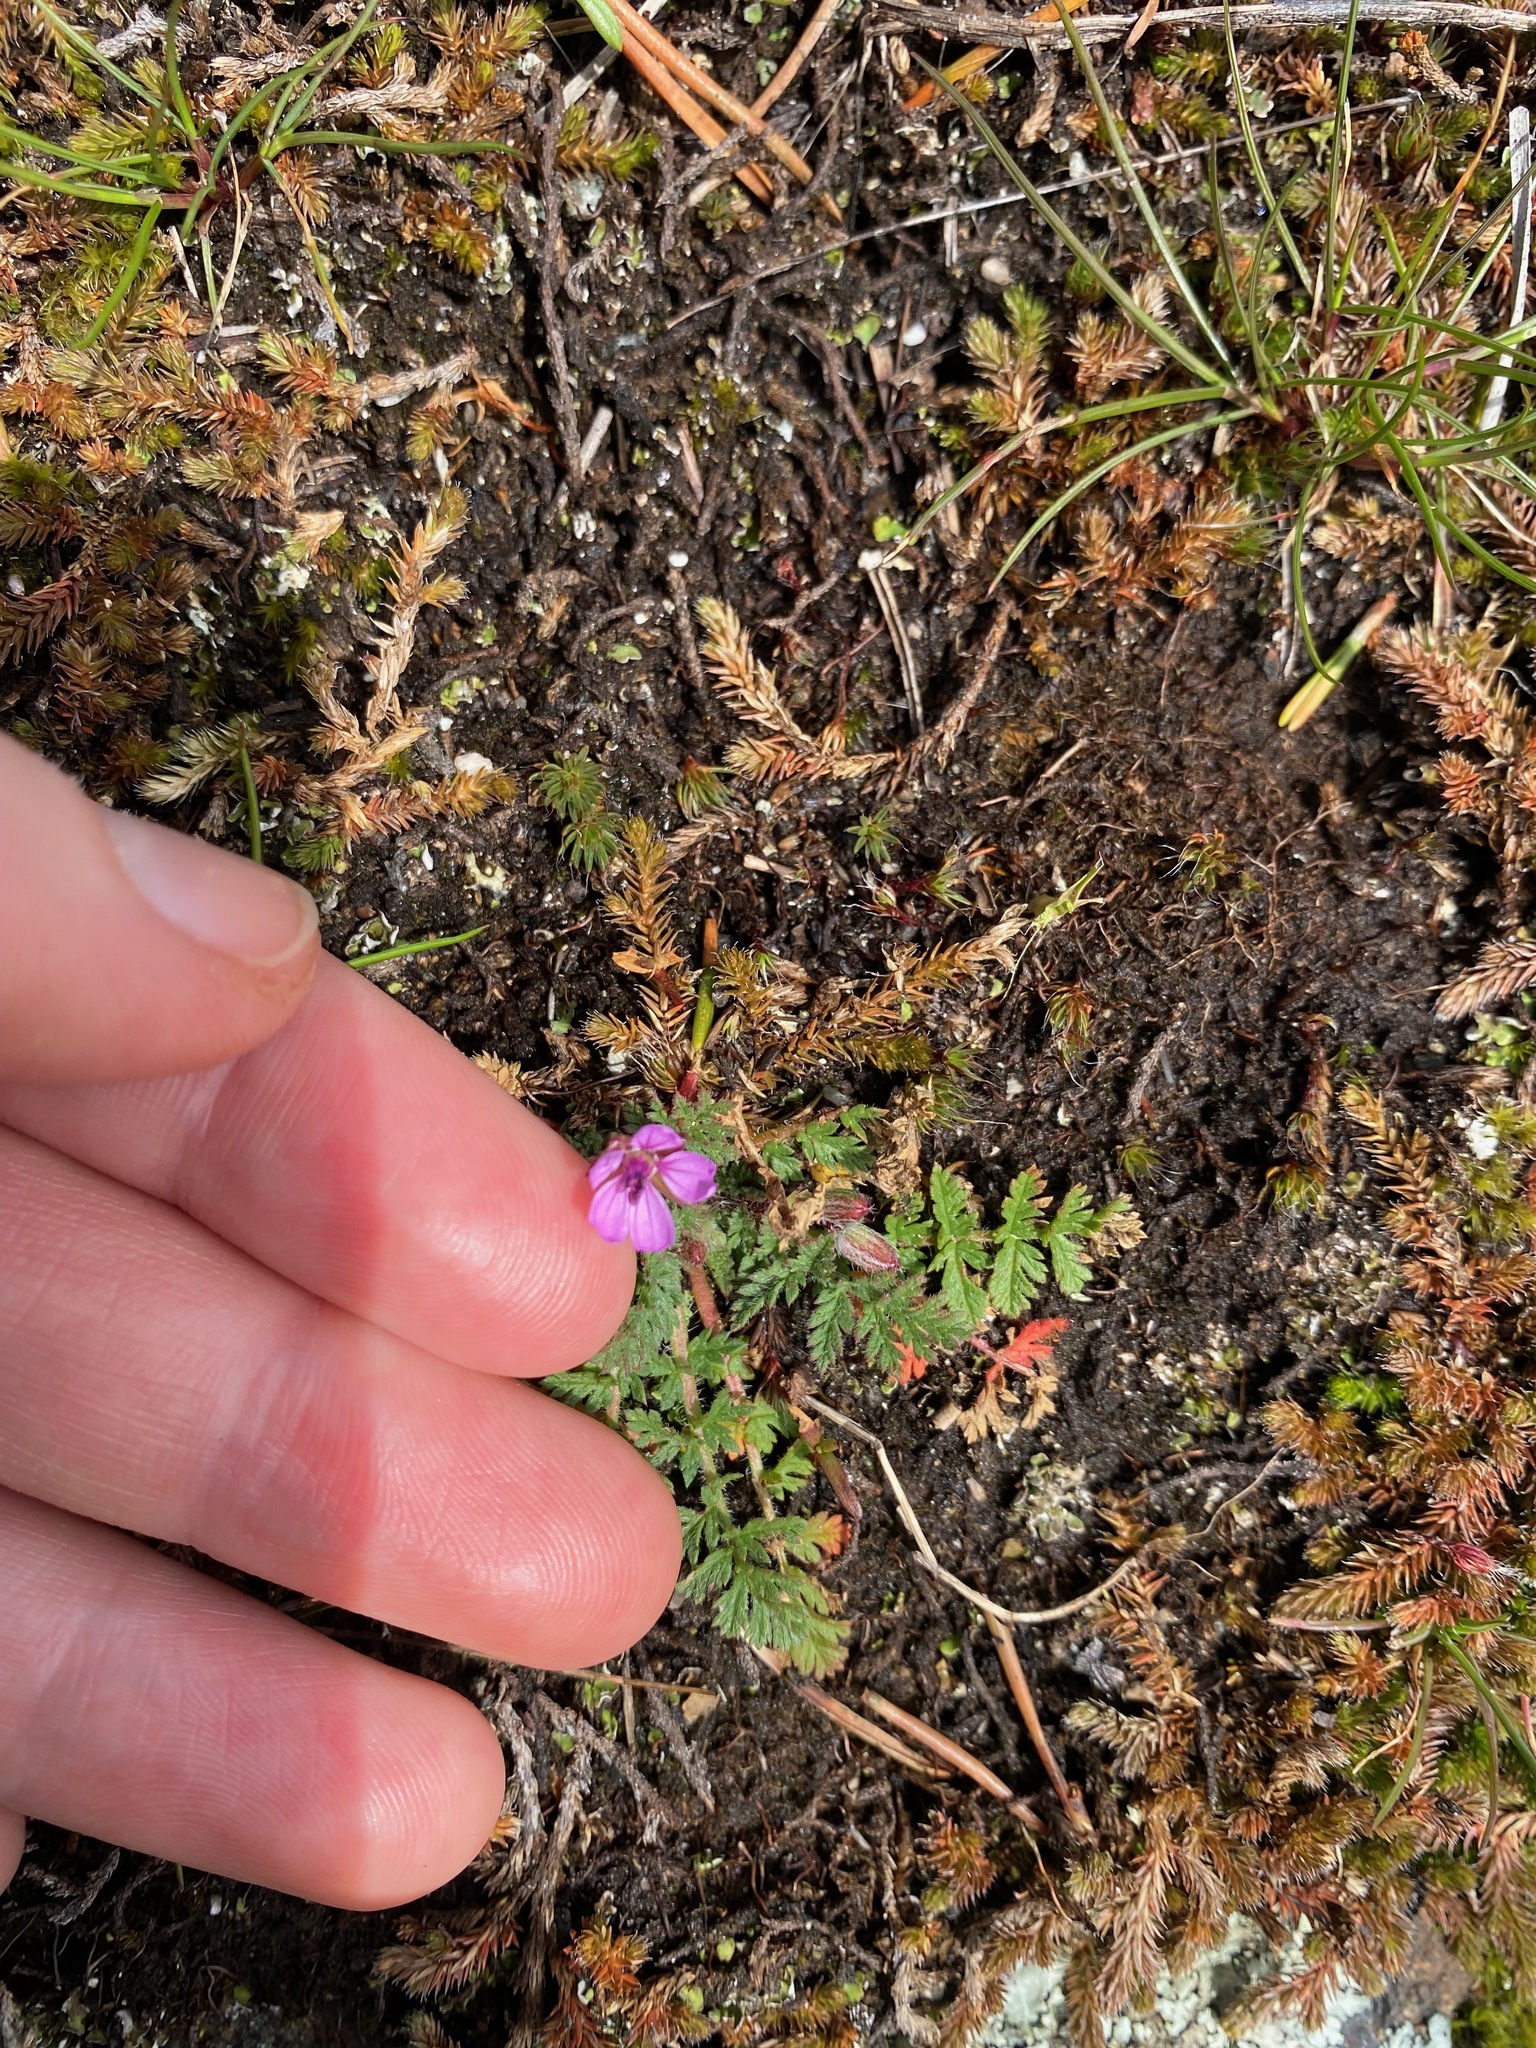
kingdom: Plantae
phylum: Tracheophyta
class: Magnoliopsida
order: Geraniales
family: Geraniaceae
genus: Erodium
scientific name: Erodium cicutarium
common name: Common stork's-bill
